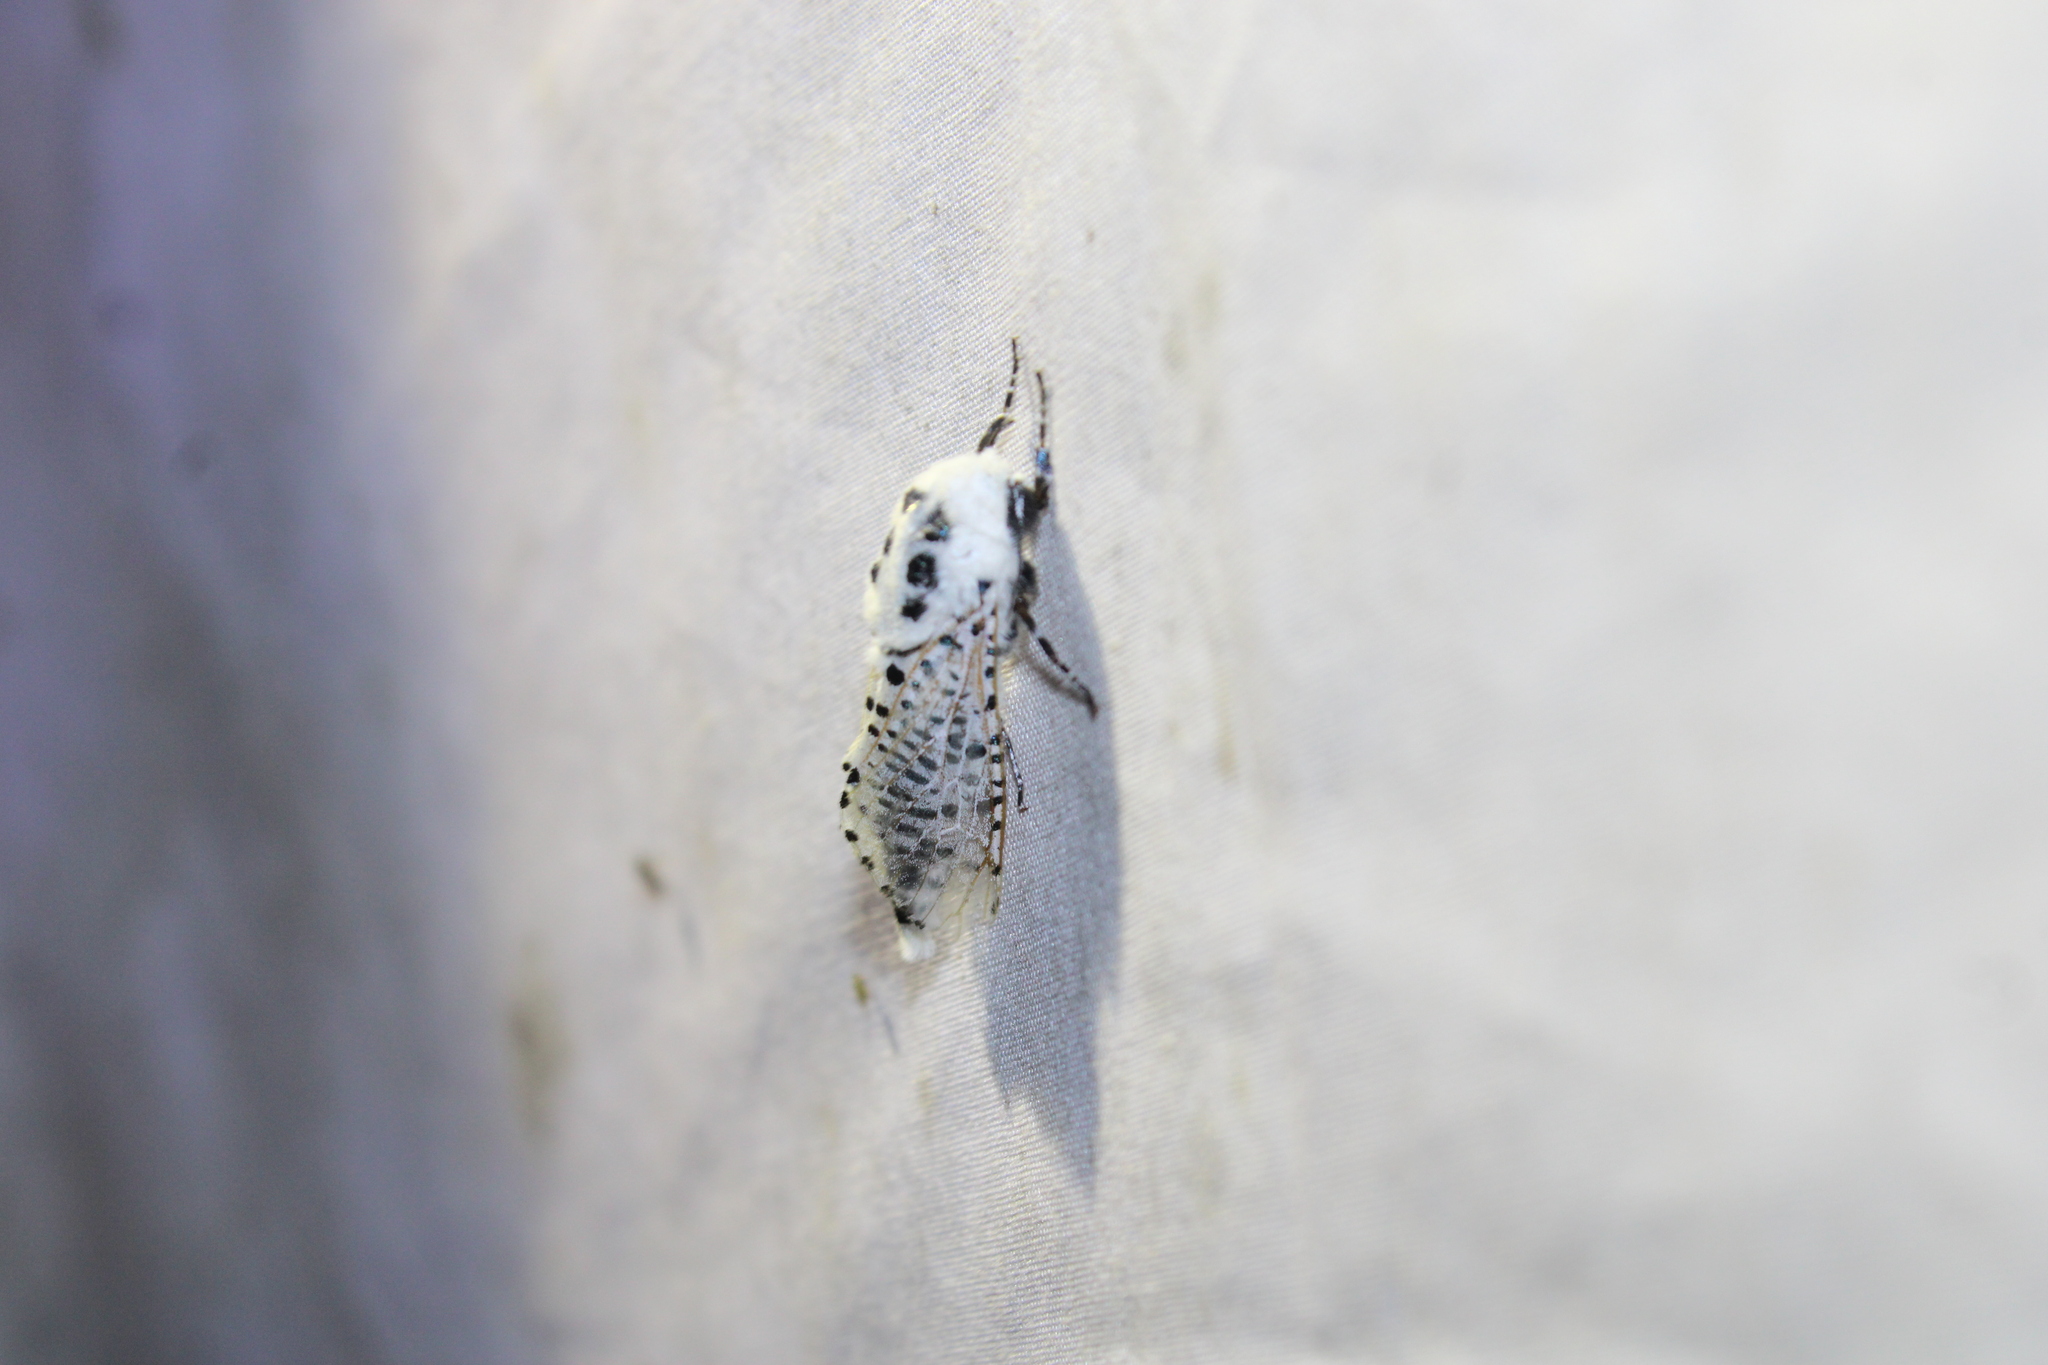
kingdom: Animalia
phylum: Arthropoda
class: Insecta
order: Lepidoptera
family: Cossidae
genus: Zeuzera
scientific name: Zeuzera pyrina
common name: Leopard moth
